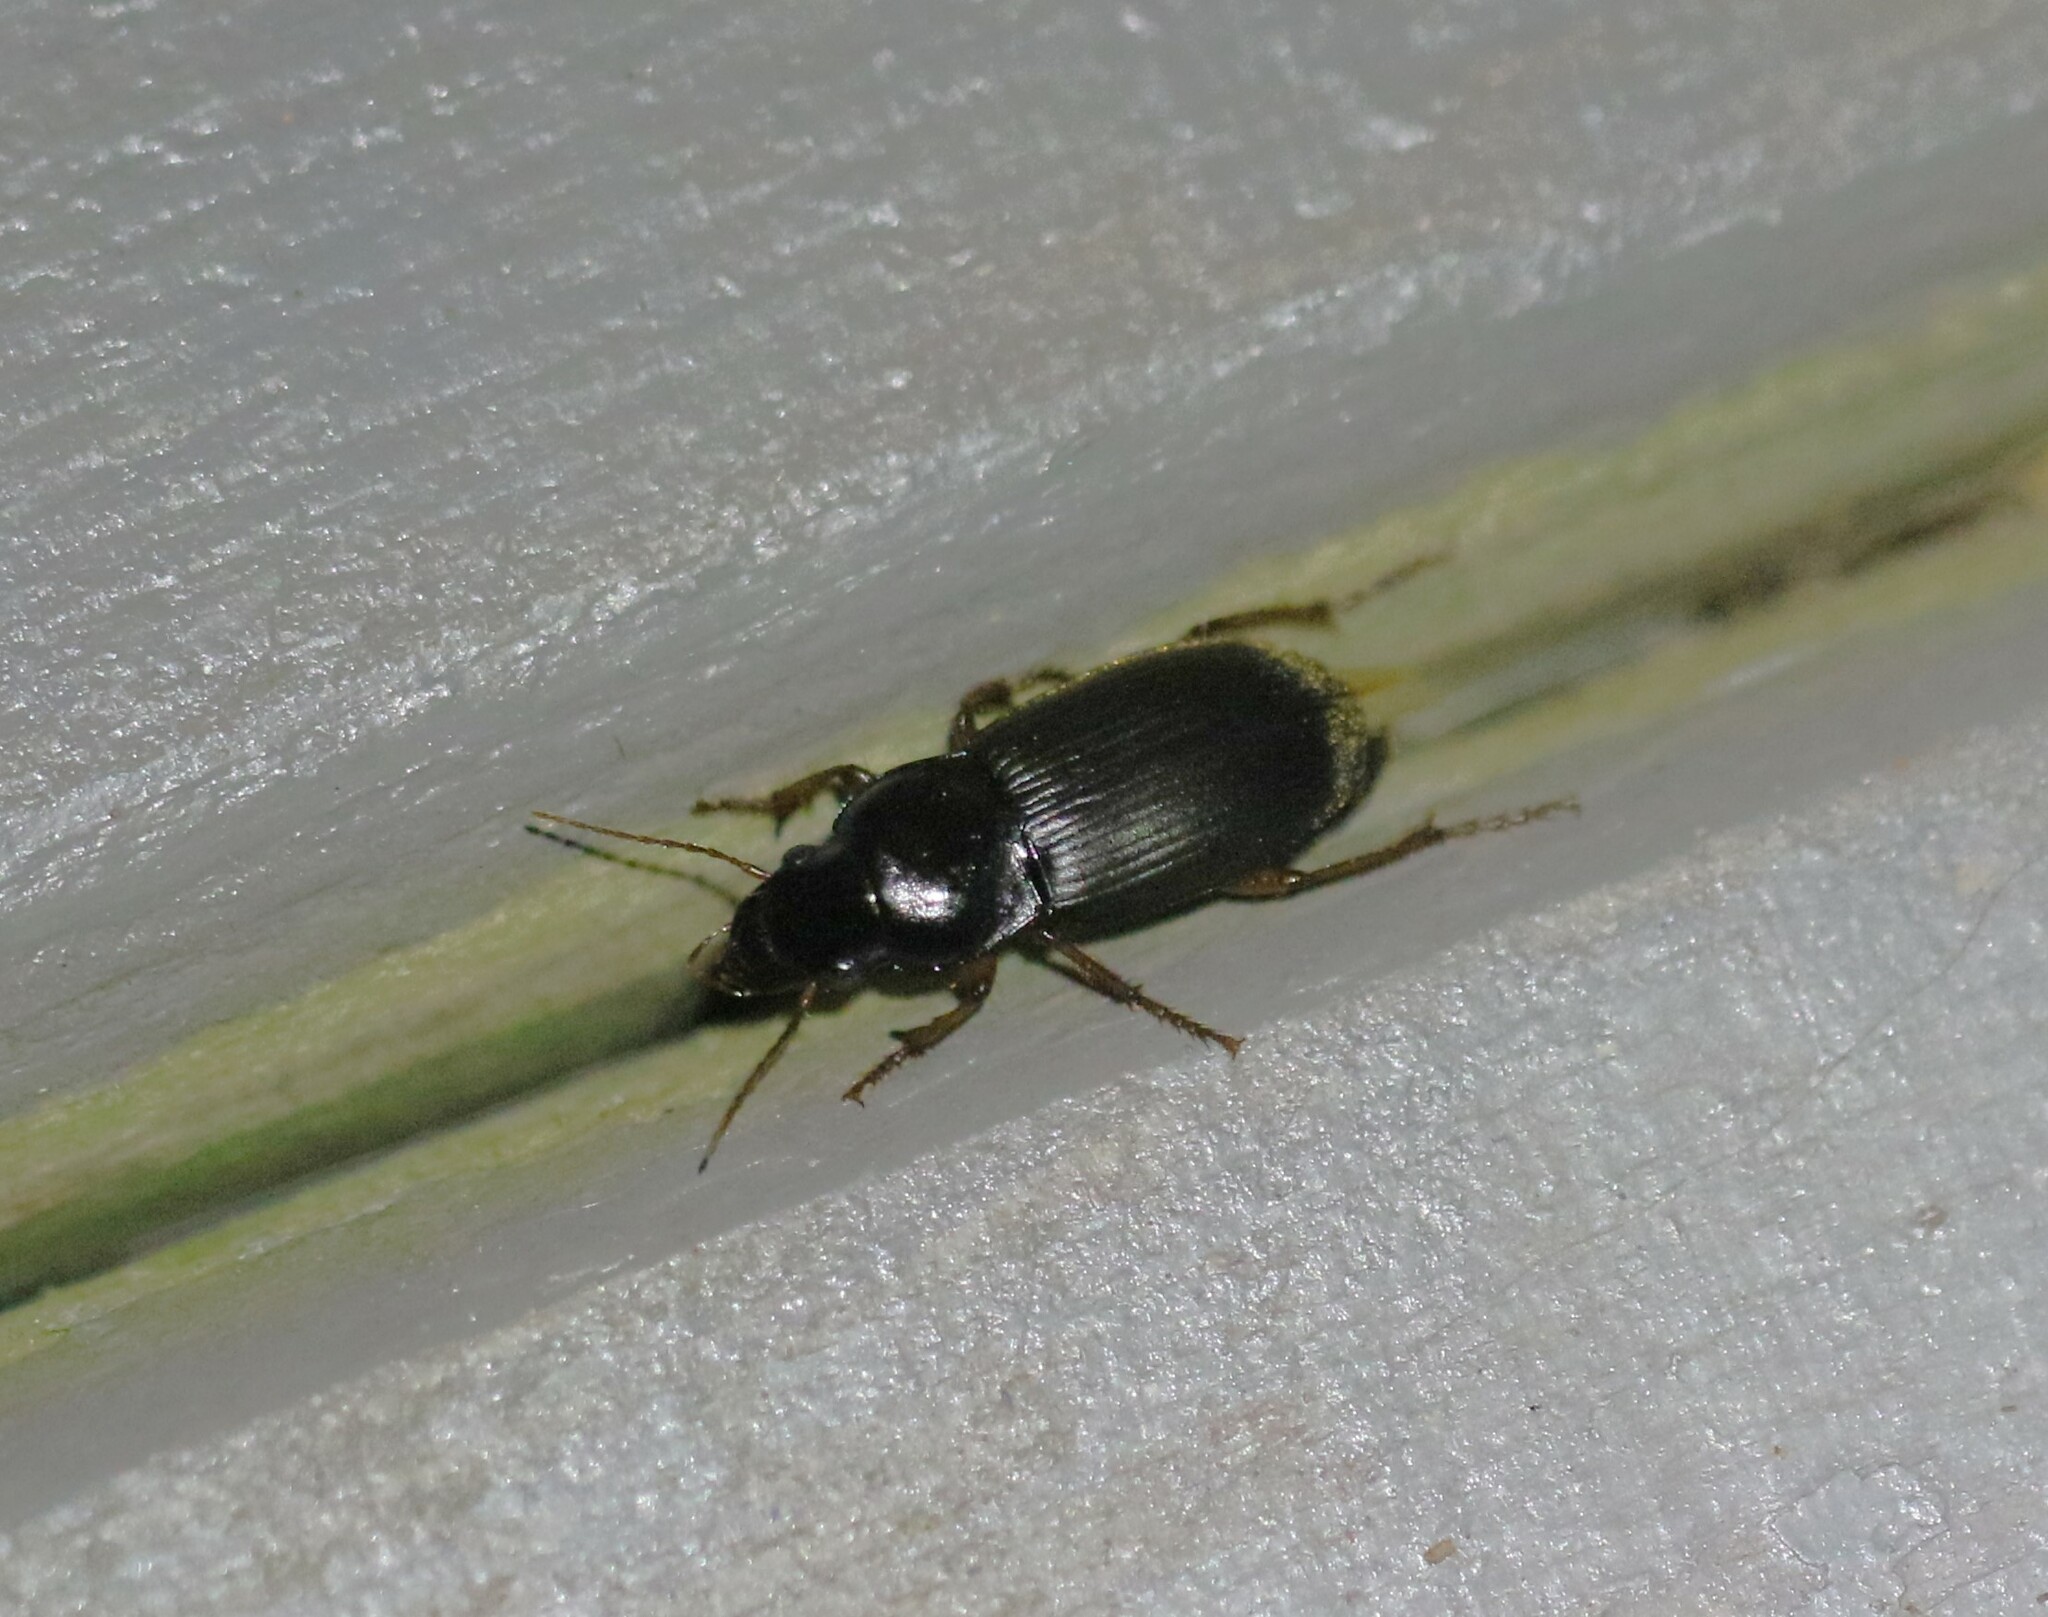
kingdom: Animalia
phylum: Arthropoda
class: Insecta
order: Coleoptera
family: Carabidae
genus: Harpalus
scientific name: Harpalus rufipes
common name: Strawberry harp ground beetle
